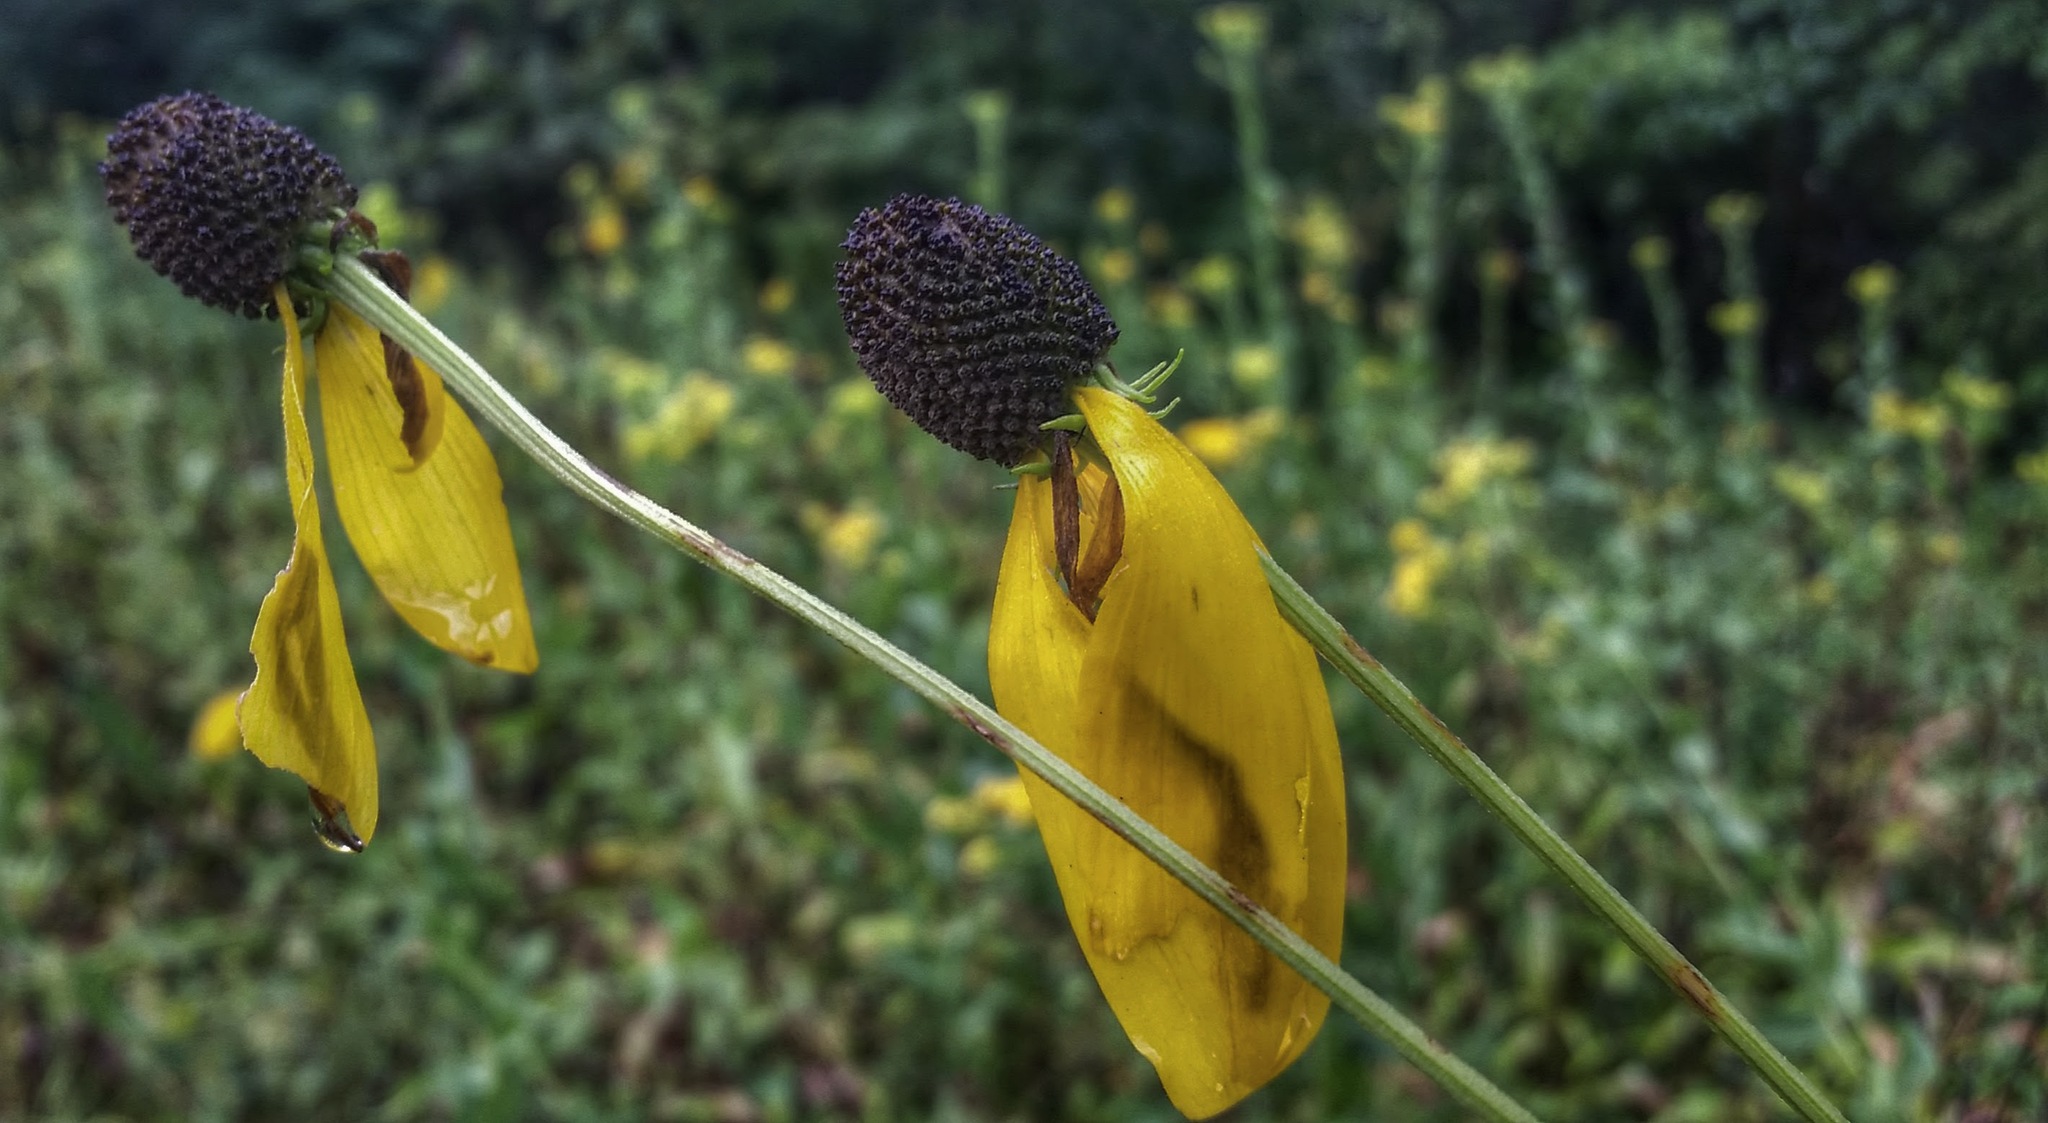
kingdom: Plantae
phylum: Tracheophyta
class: Magnoliopsida
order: Asterales
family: Asteraceae
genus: Ratibida
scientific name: Ratibida pinnata
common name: Drooping prairie-coneflower
